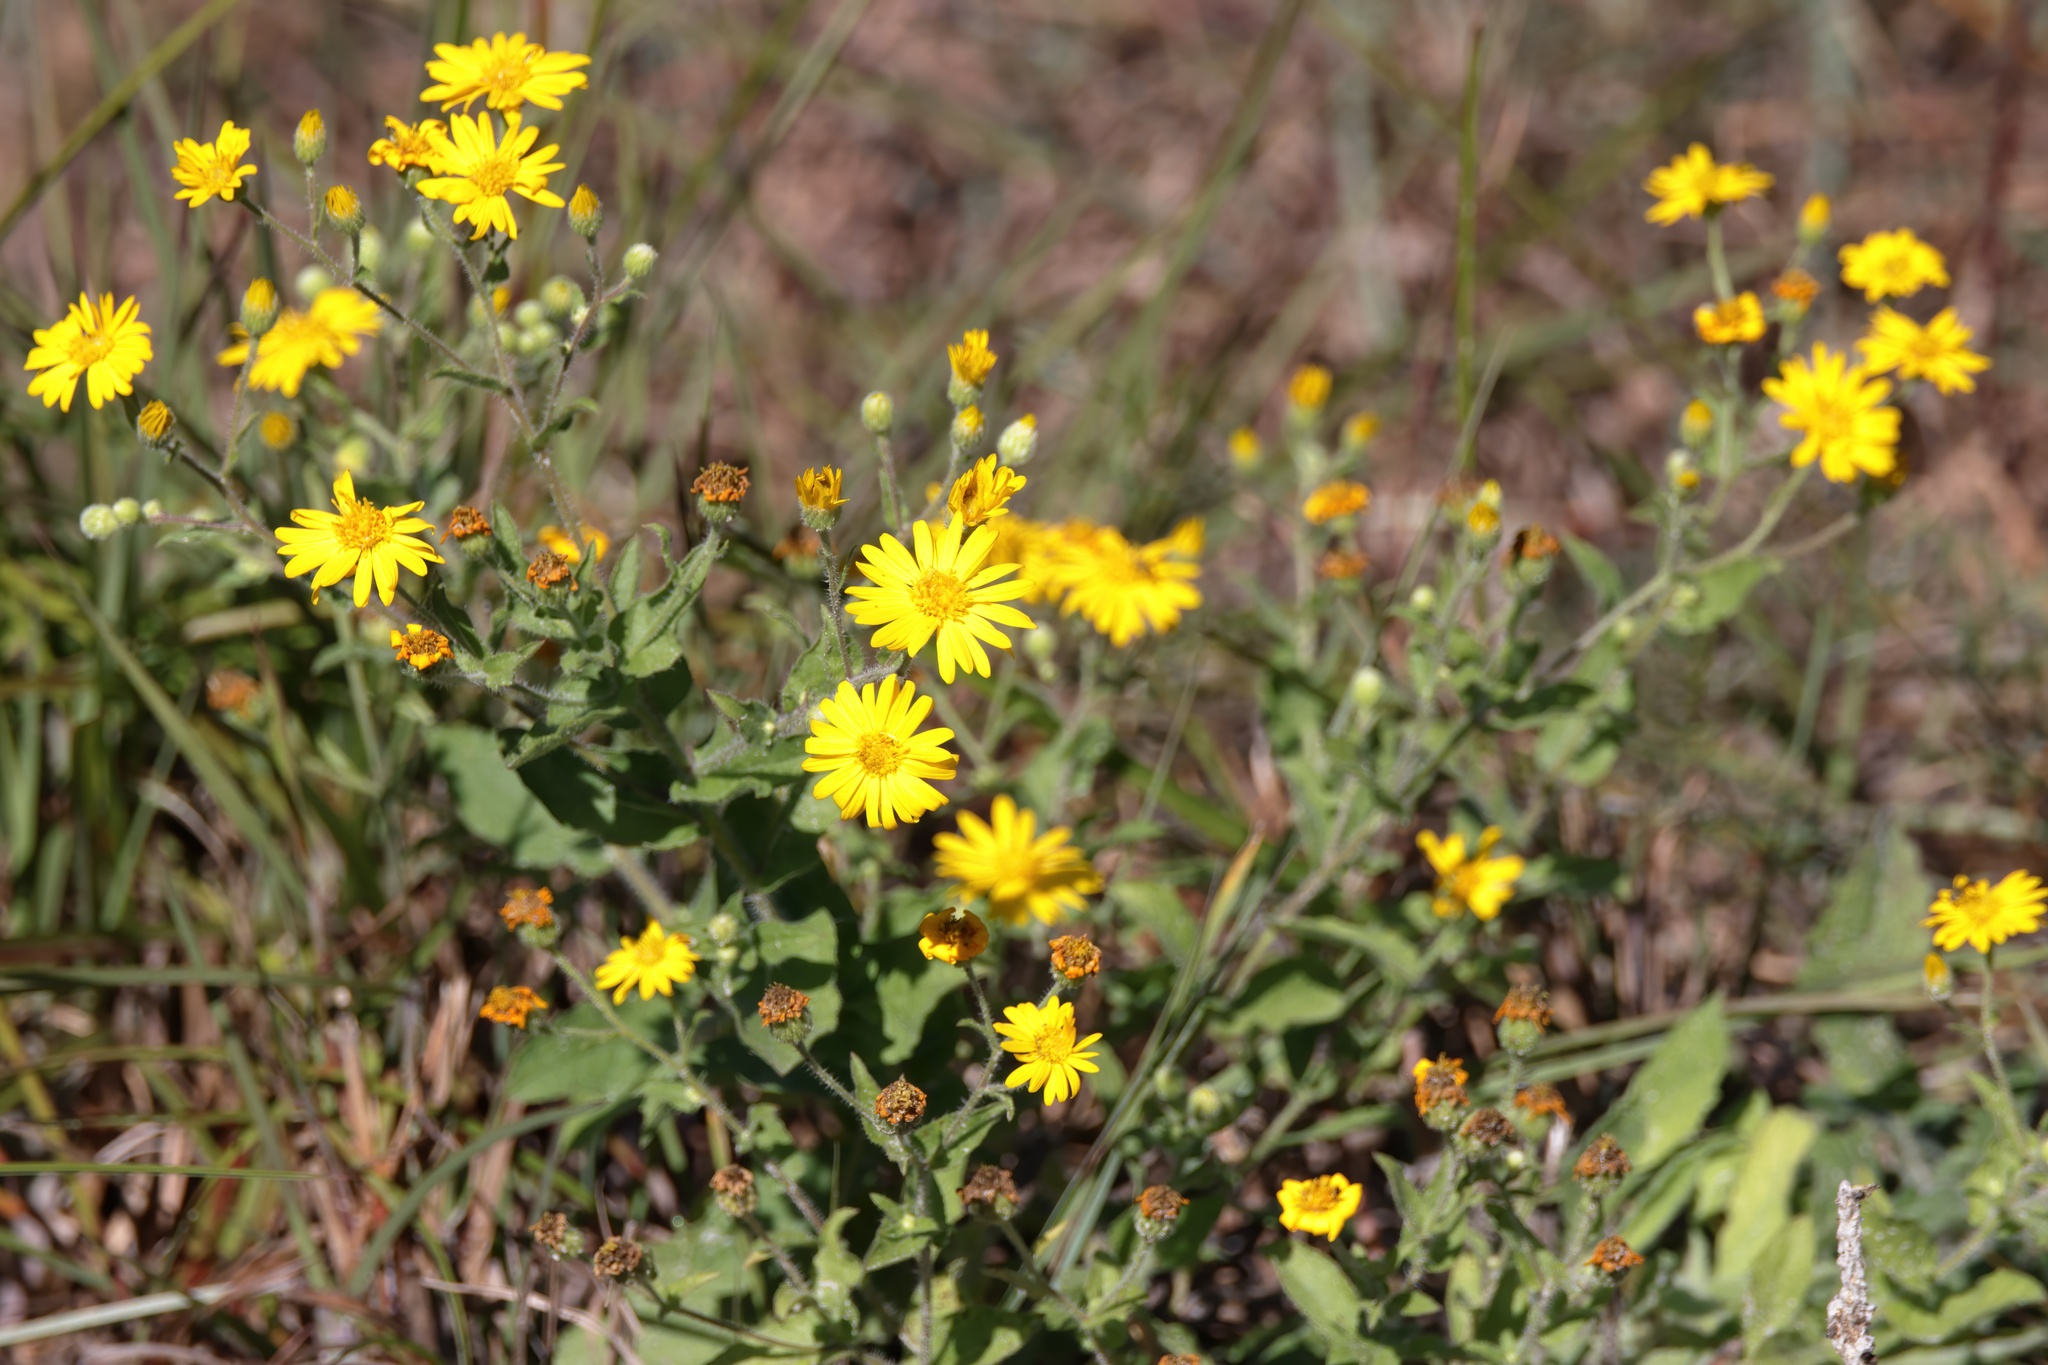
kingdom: Plantae
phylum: Tracheophyta
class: Magnoliopsida
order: Asterales
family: Asteraceae
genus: Heterotheca
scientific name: Heterotheca subaxillaris
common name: Camphorweed
